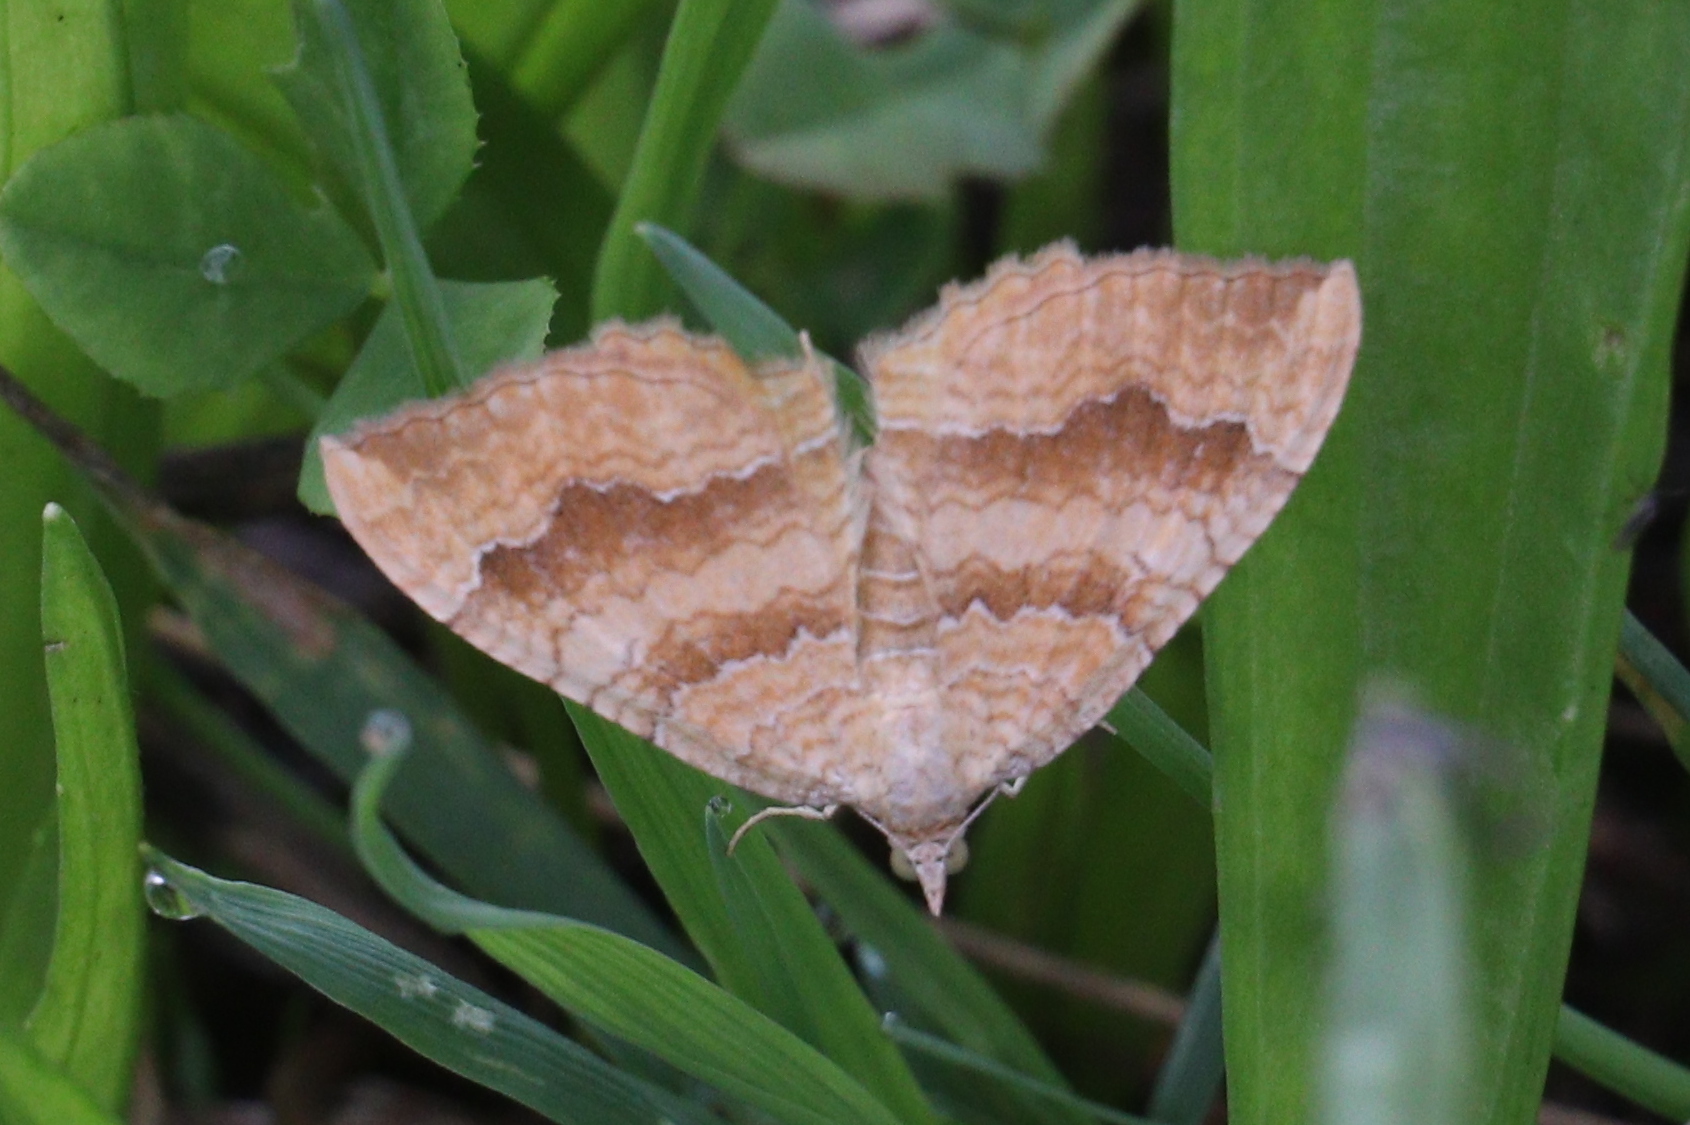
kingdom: Animalia
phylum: Arthropoda
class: Insecta
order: Lepidoptera
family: Geometridae
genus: Camptogramma
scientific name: Camptogramma bilineata
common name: Yellow shell
